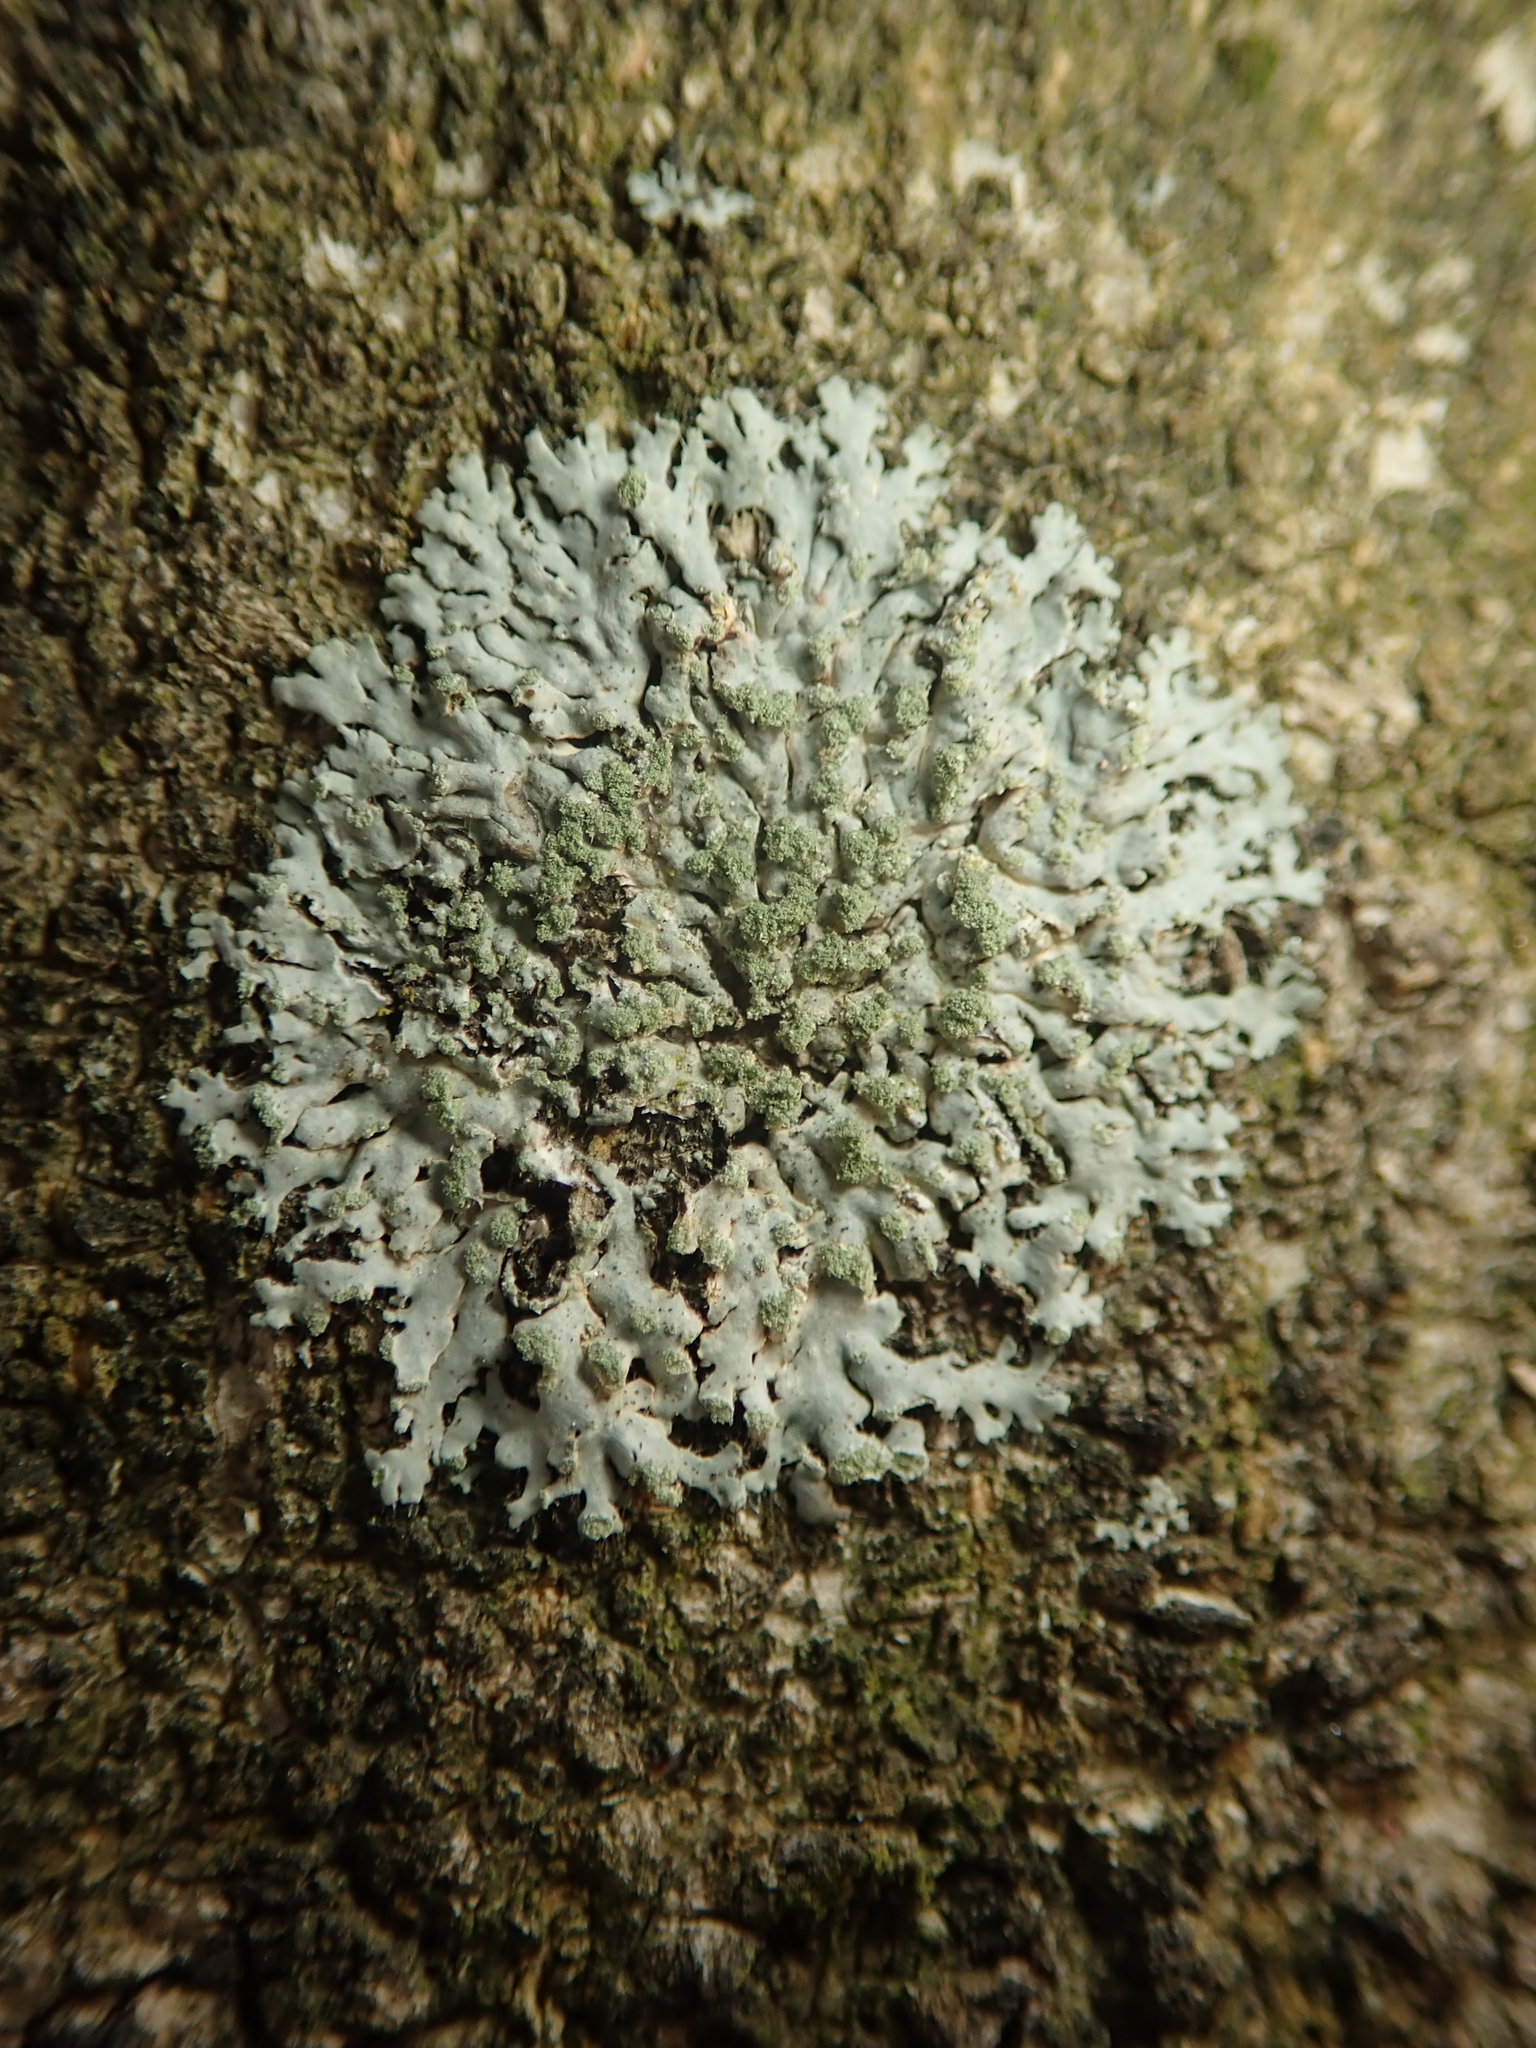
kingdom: Fungi
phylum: Ascomycota
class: Lecanoromycetes
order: Caliciales
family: Physciaceae
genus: Phaeophyscia
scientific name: Phaeophyscia orbicularis
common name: Mealy shadow lichen
